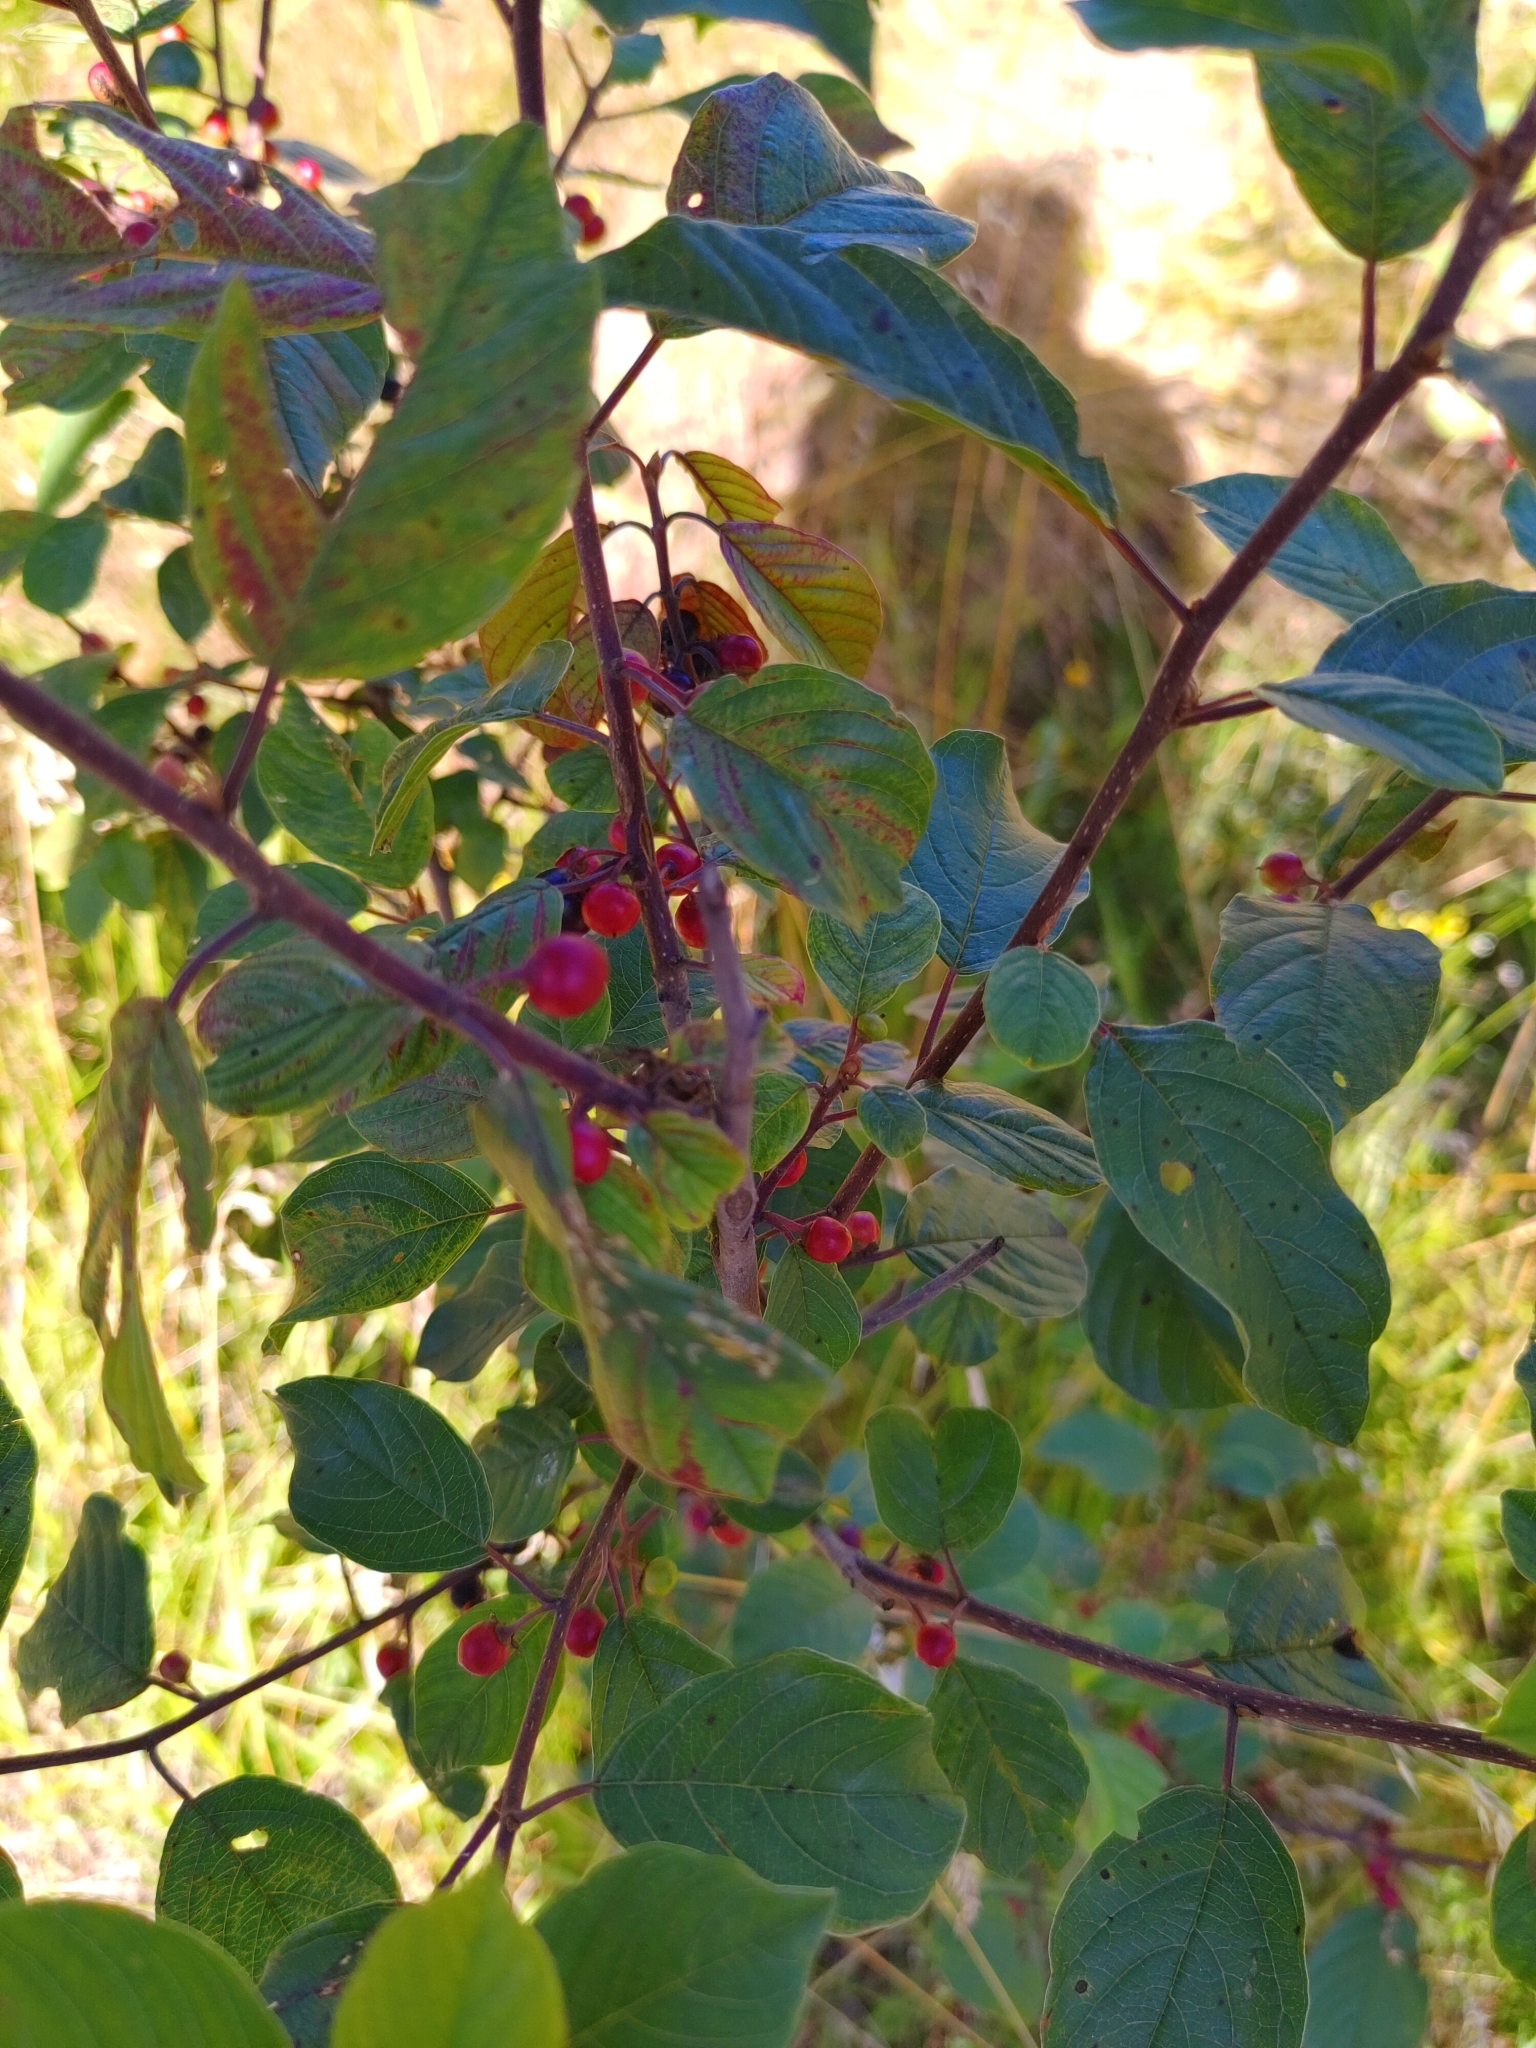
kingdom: Plantae
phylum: Tracheophyta
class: Magnoliopsida
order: Rosales
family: Rhamnaceae
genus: Frangula
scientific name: Frangula alnus
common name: Alder buckthorn
